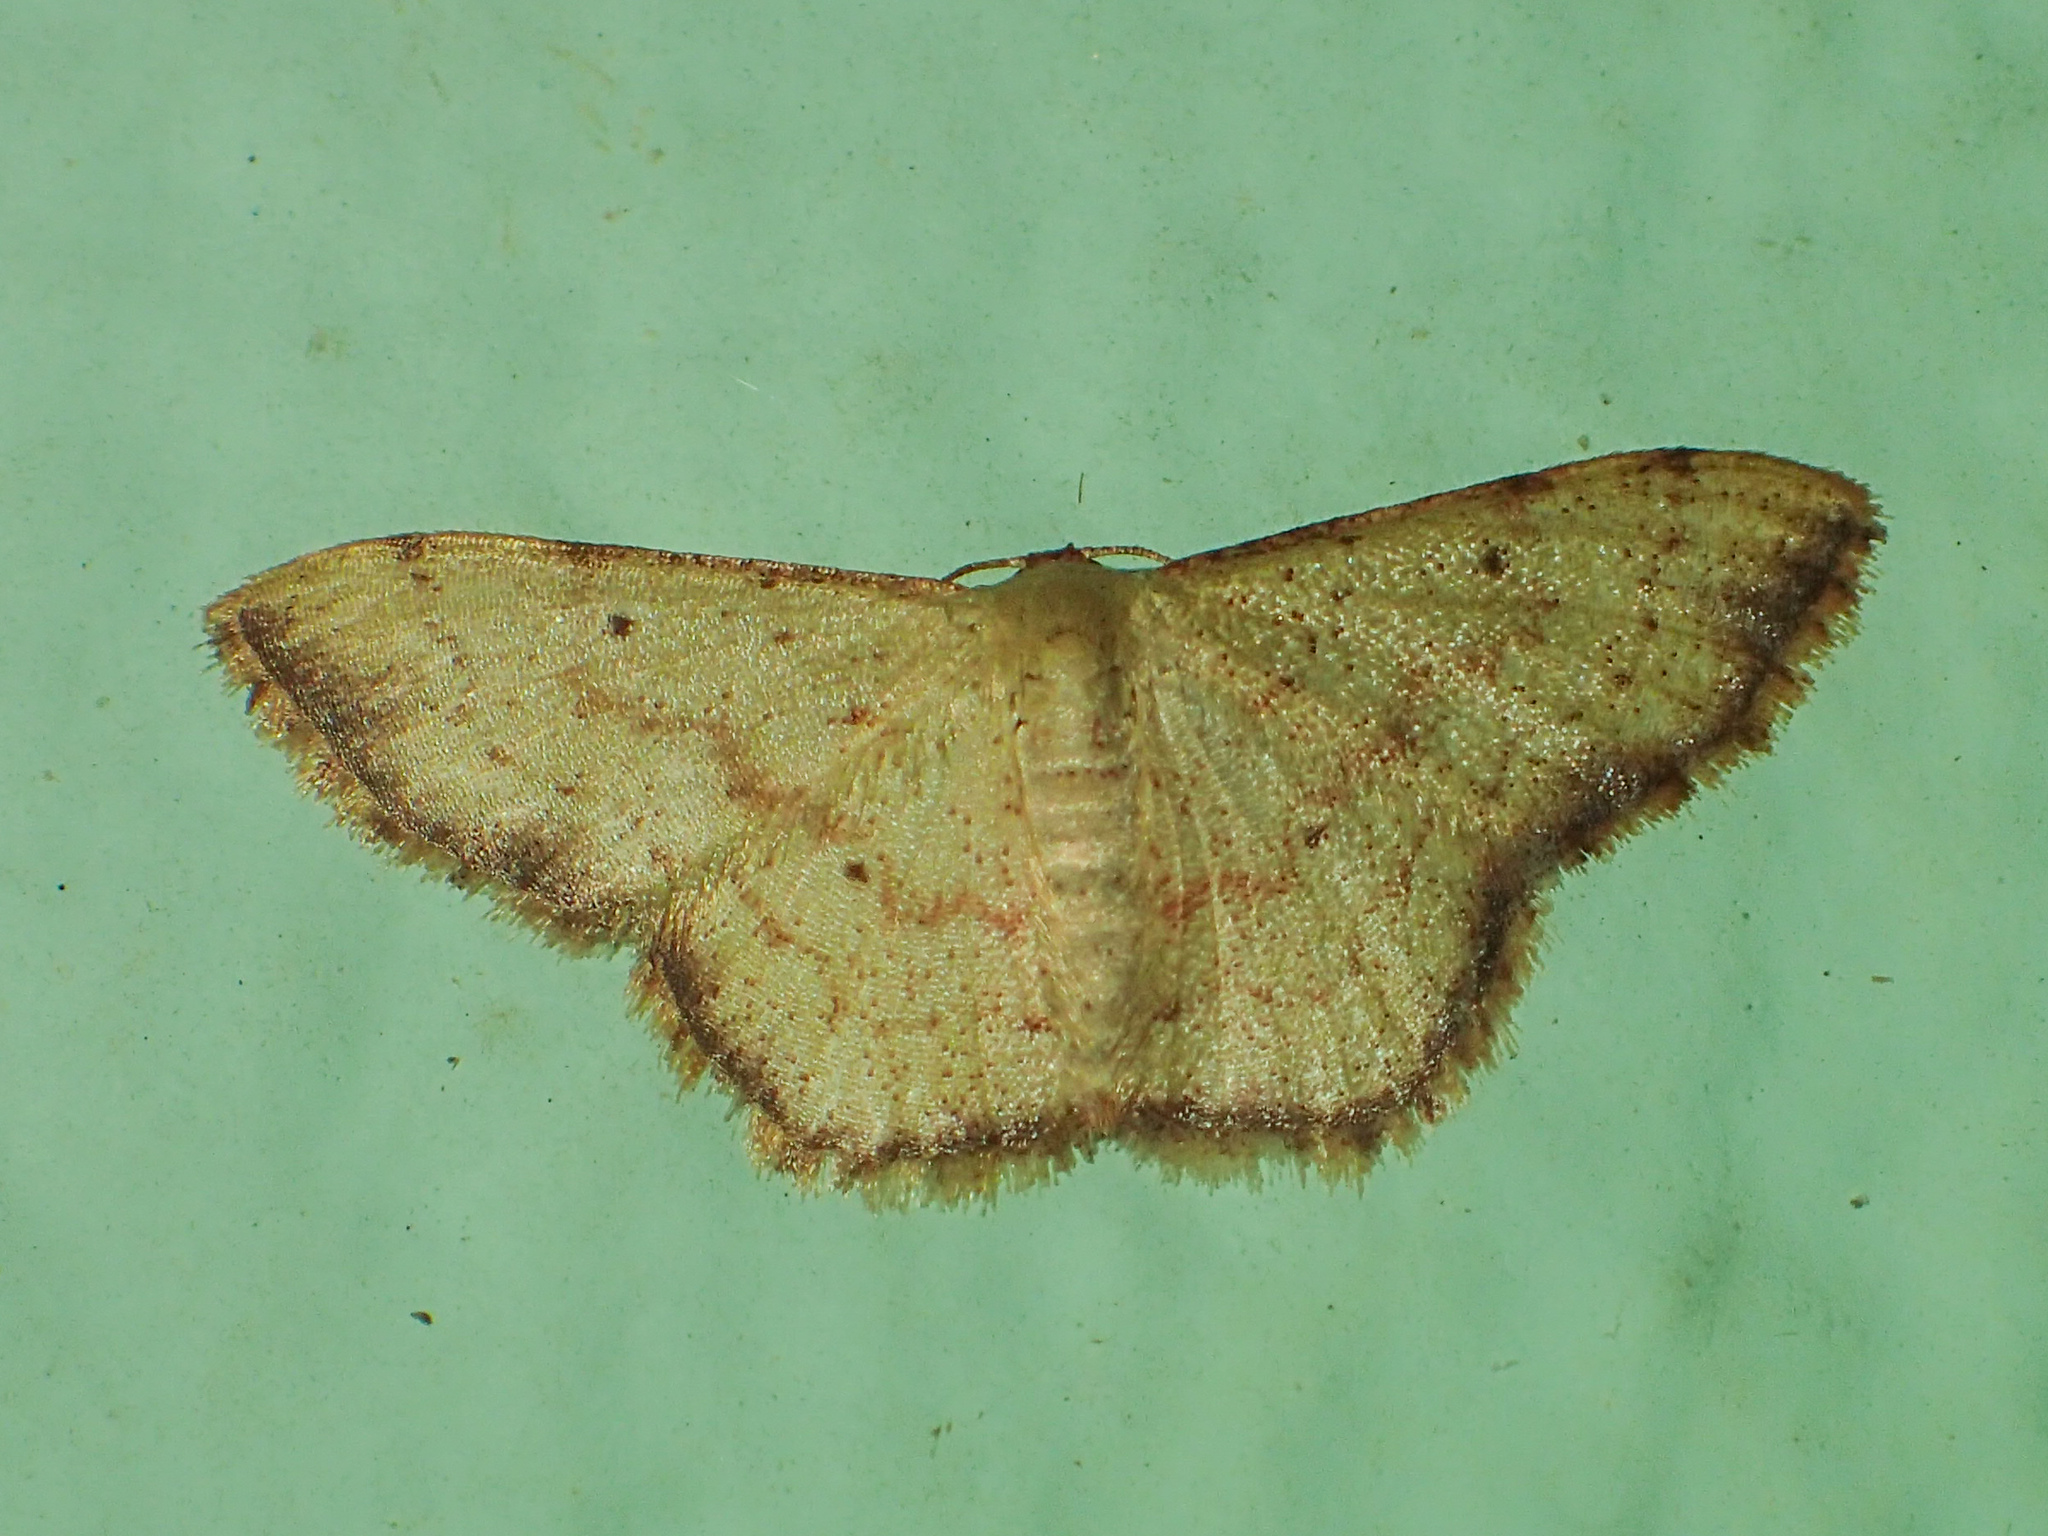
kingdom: Animalia
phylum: Arthropoda
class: Insecta
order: Lepidoptera
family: Geometridae
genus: Idaea
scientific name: Idaea craspedota
